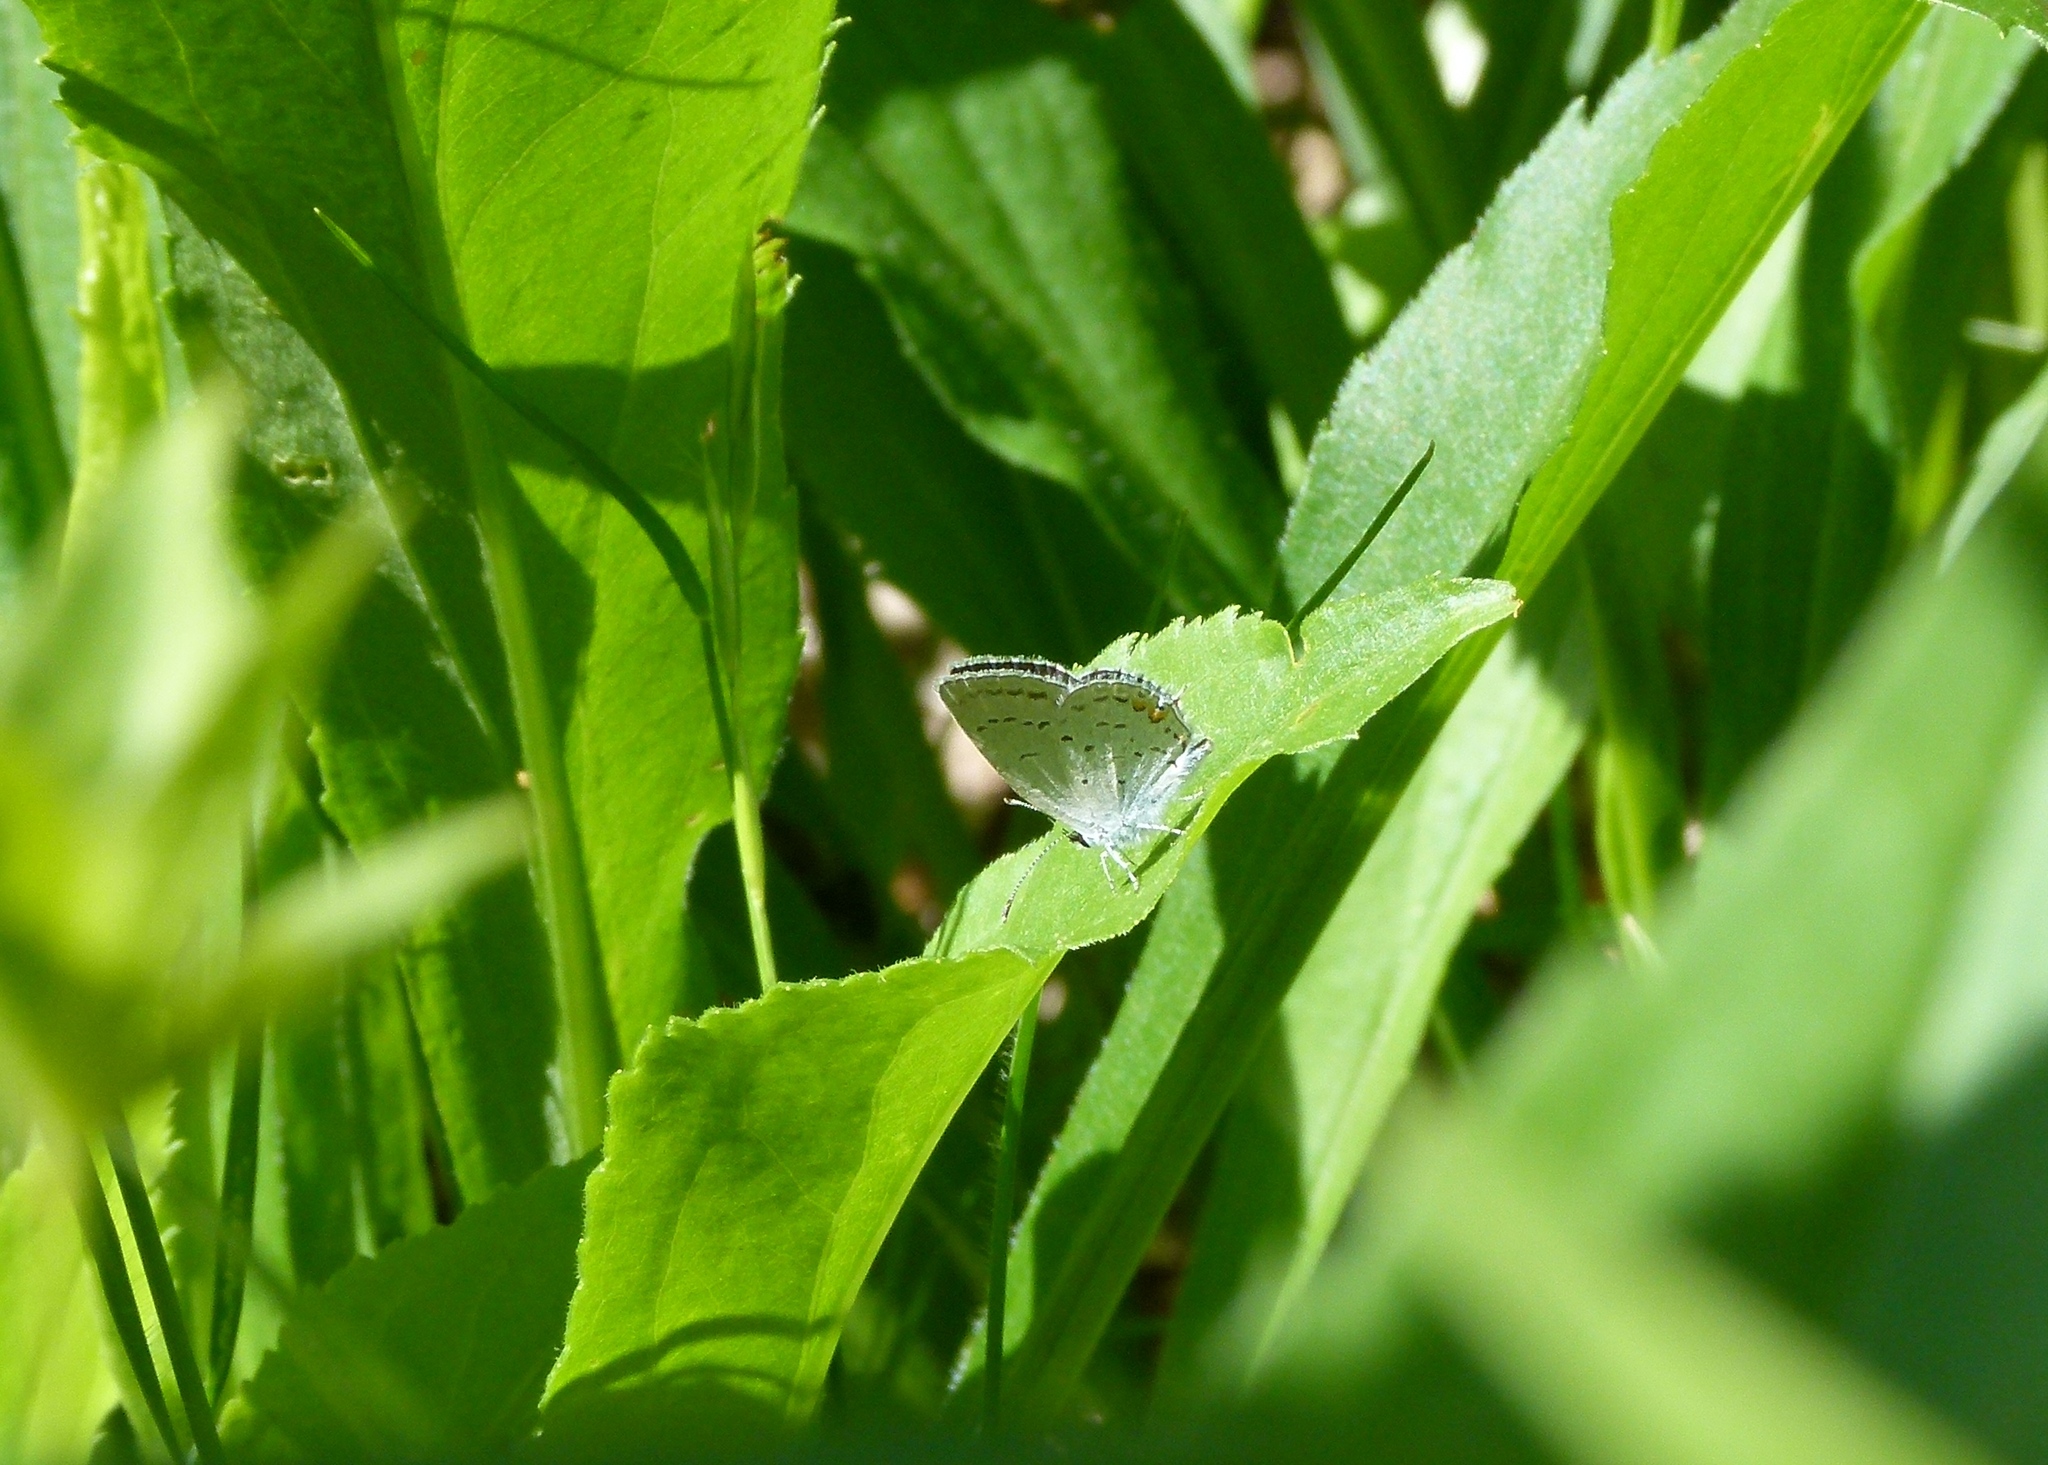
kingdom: Animalia
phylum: Arthropoda
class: Insecta
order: Lepidoptera
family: Lycaenidae
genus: Elkalyce
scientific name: Elkalyce comyntas
